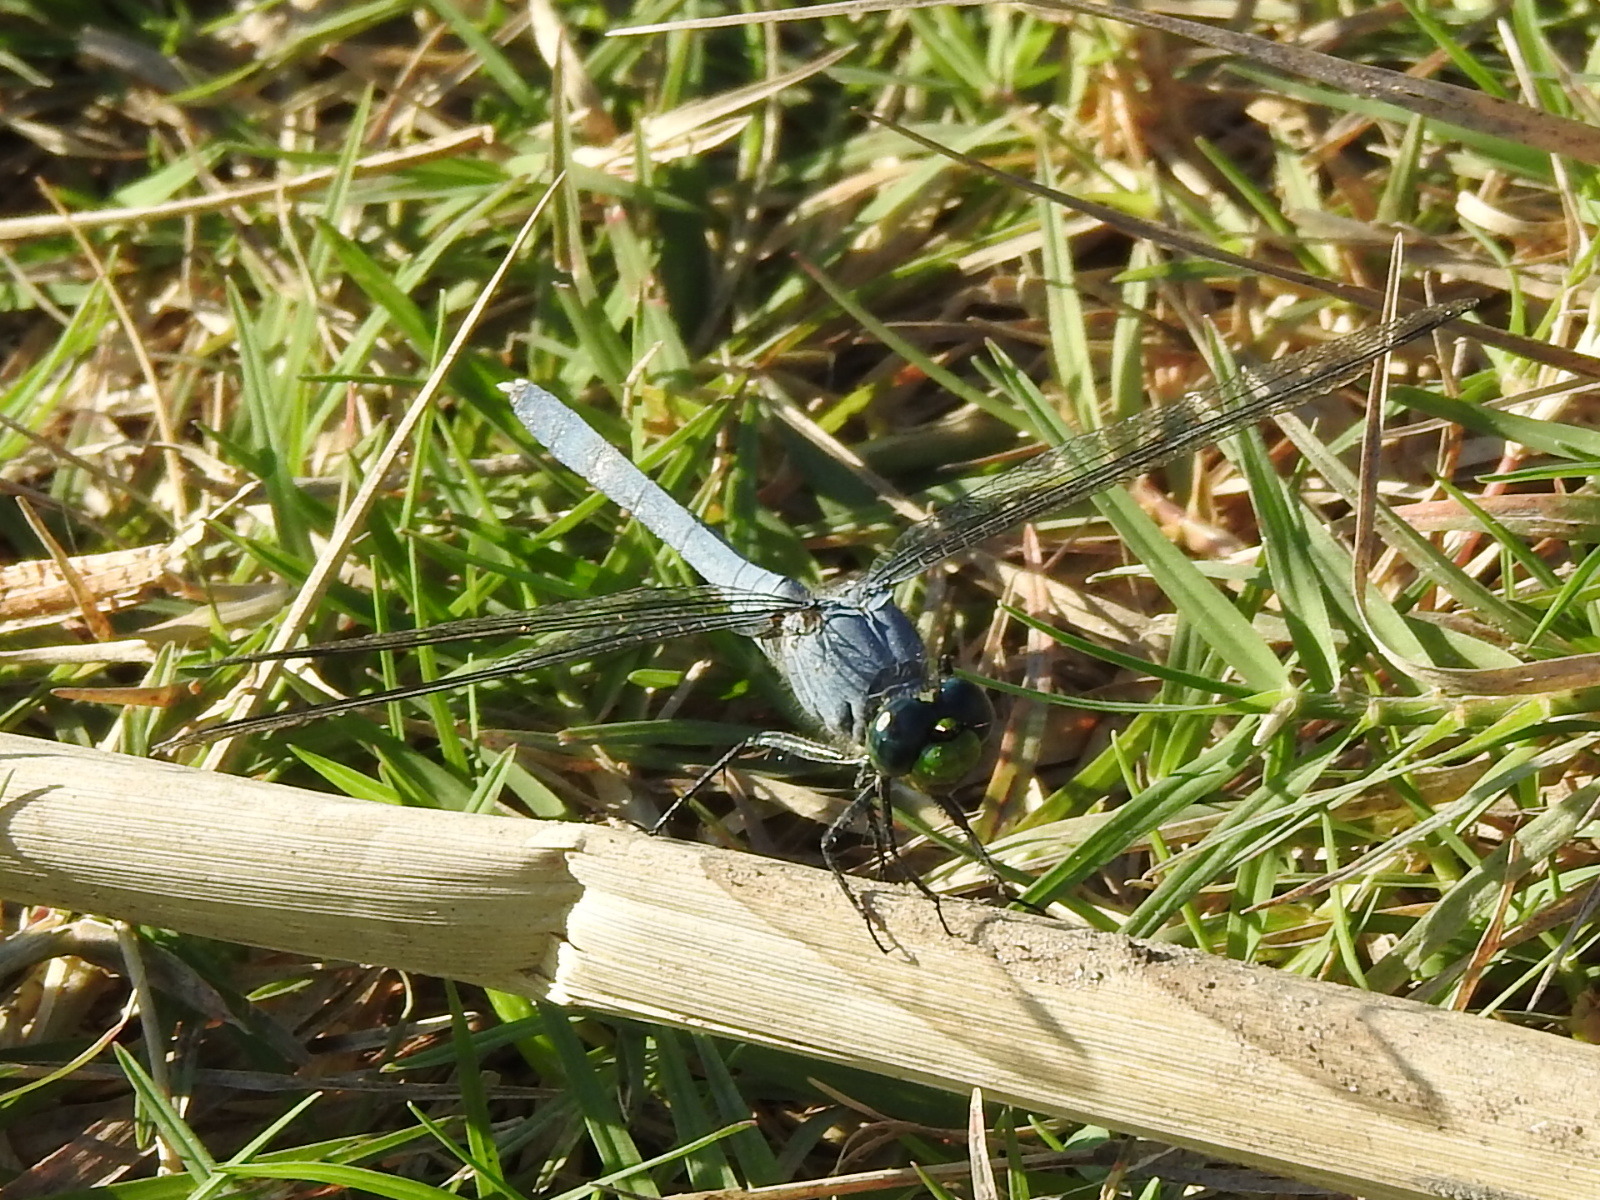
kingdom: Animalia
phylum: Arthropoda
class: Insecta
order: Odonata
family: Libellulidae
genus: Erythemis
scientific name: Erythemis simplicicollis
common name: Eastern pondhawk
